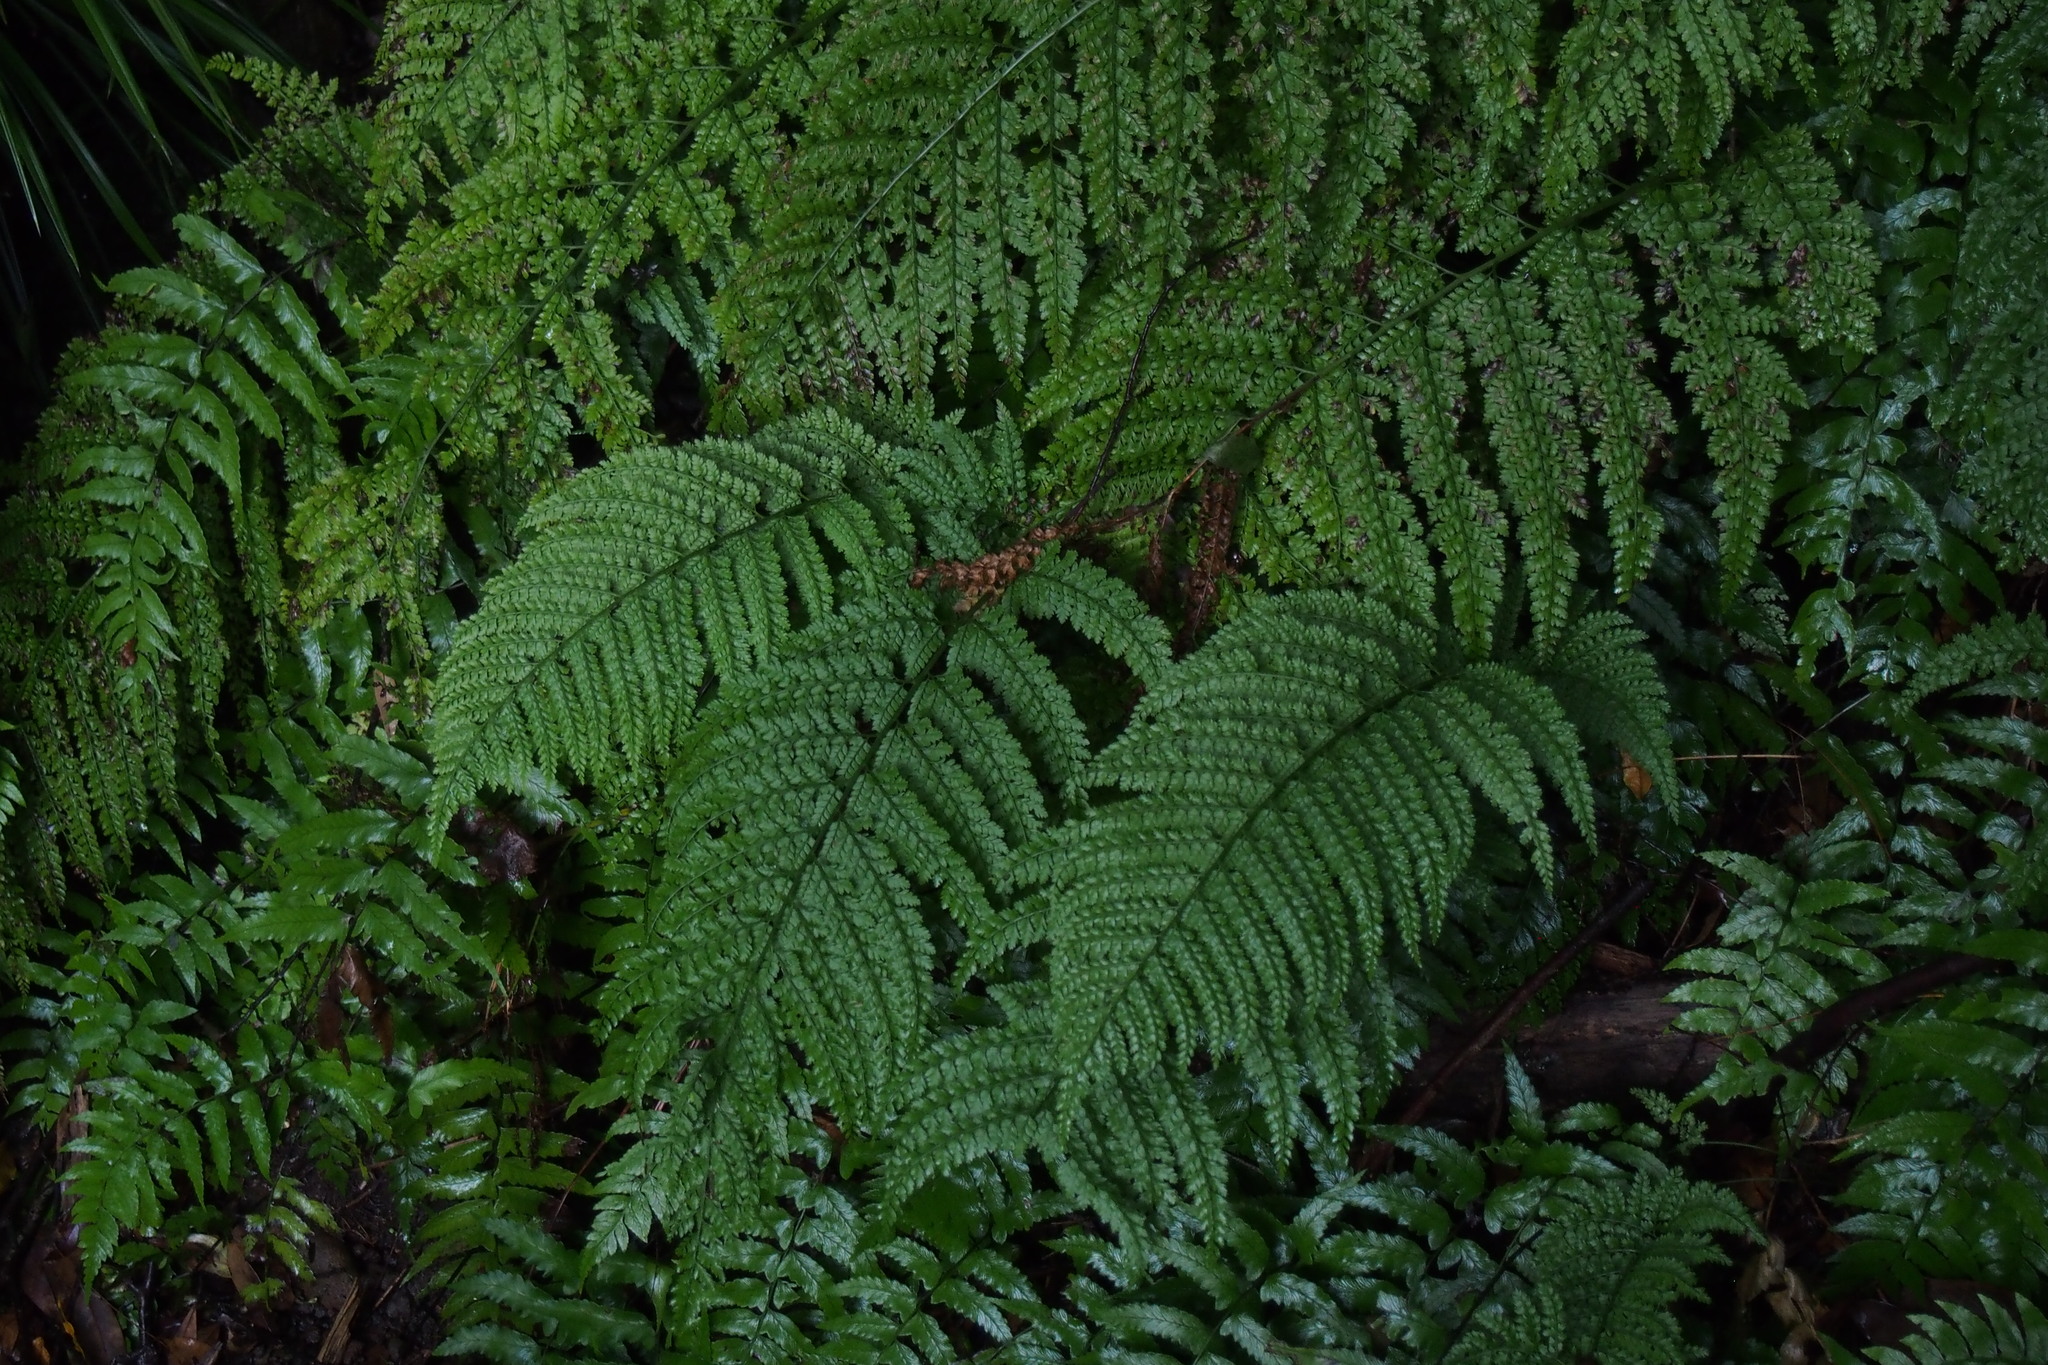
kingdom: Plantae
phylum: Tracheophyta
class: Polypodiopsida
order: Polypodiales
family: Dryopteridaceae
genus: Arachniodes
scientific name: Arachniodes standishii
